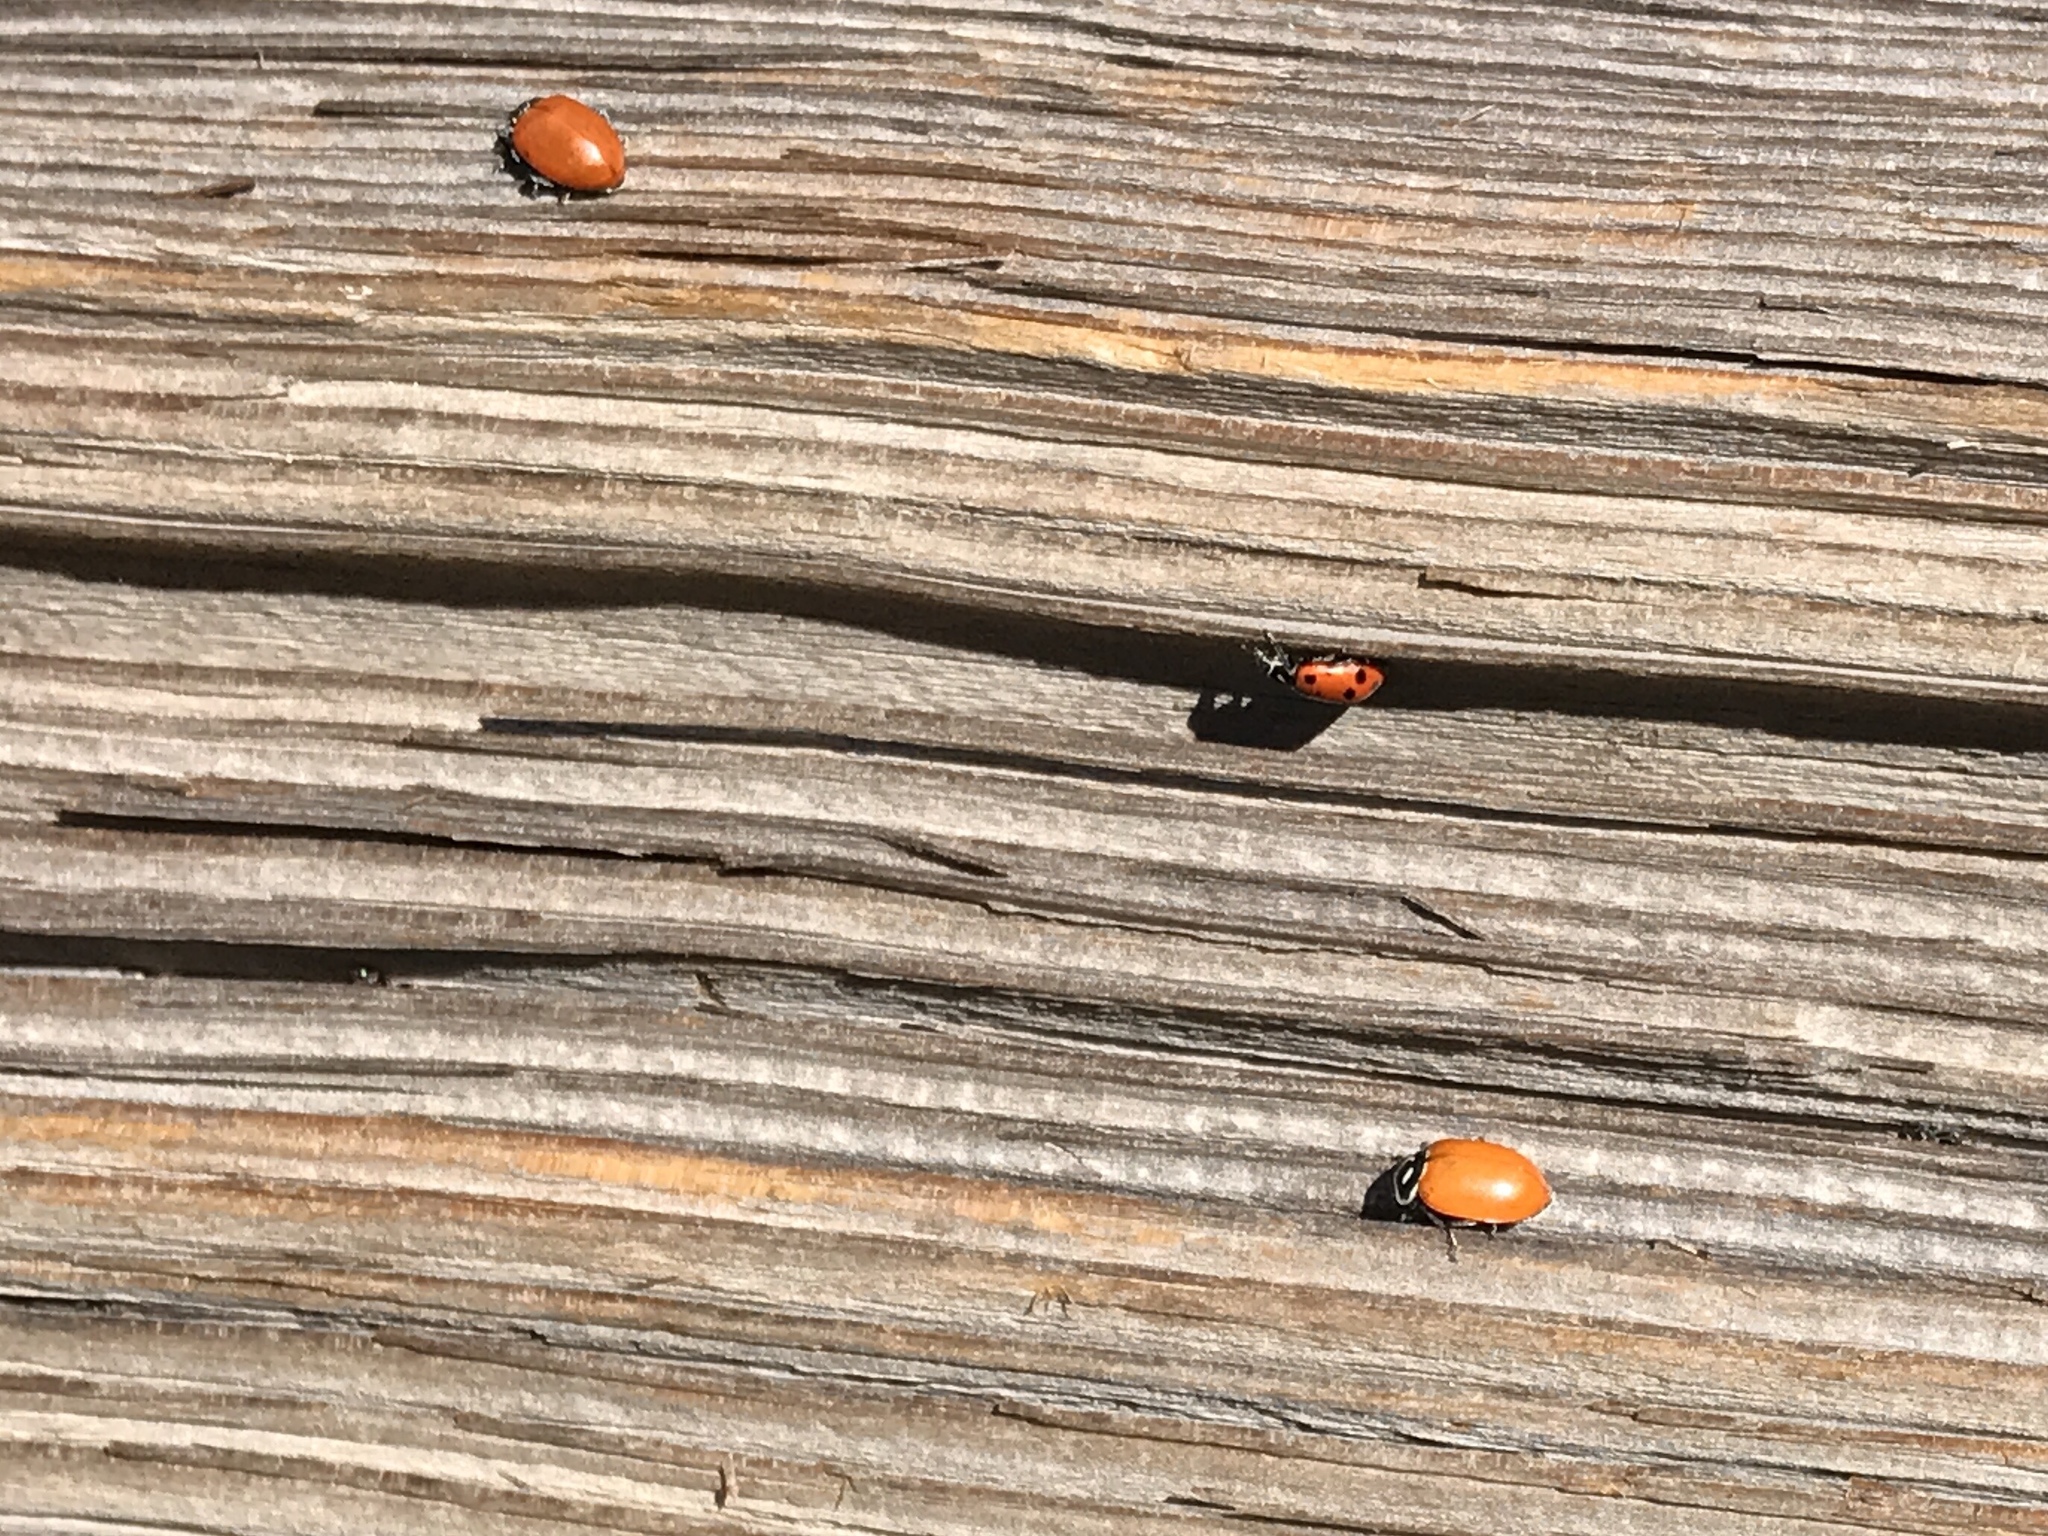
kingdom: Animalia
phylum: Arthropoda
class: Insecta
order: Coleoptera
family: Coccinellidae
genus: Hippodamia
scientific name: Hippodamia convergens
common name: Convergent lady beetle
